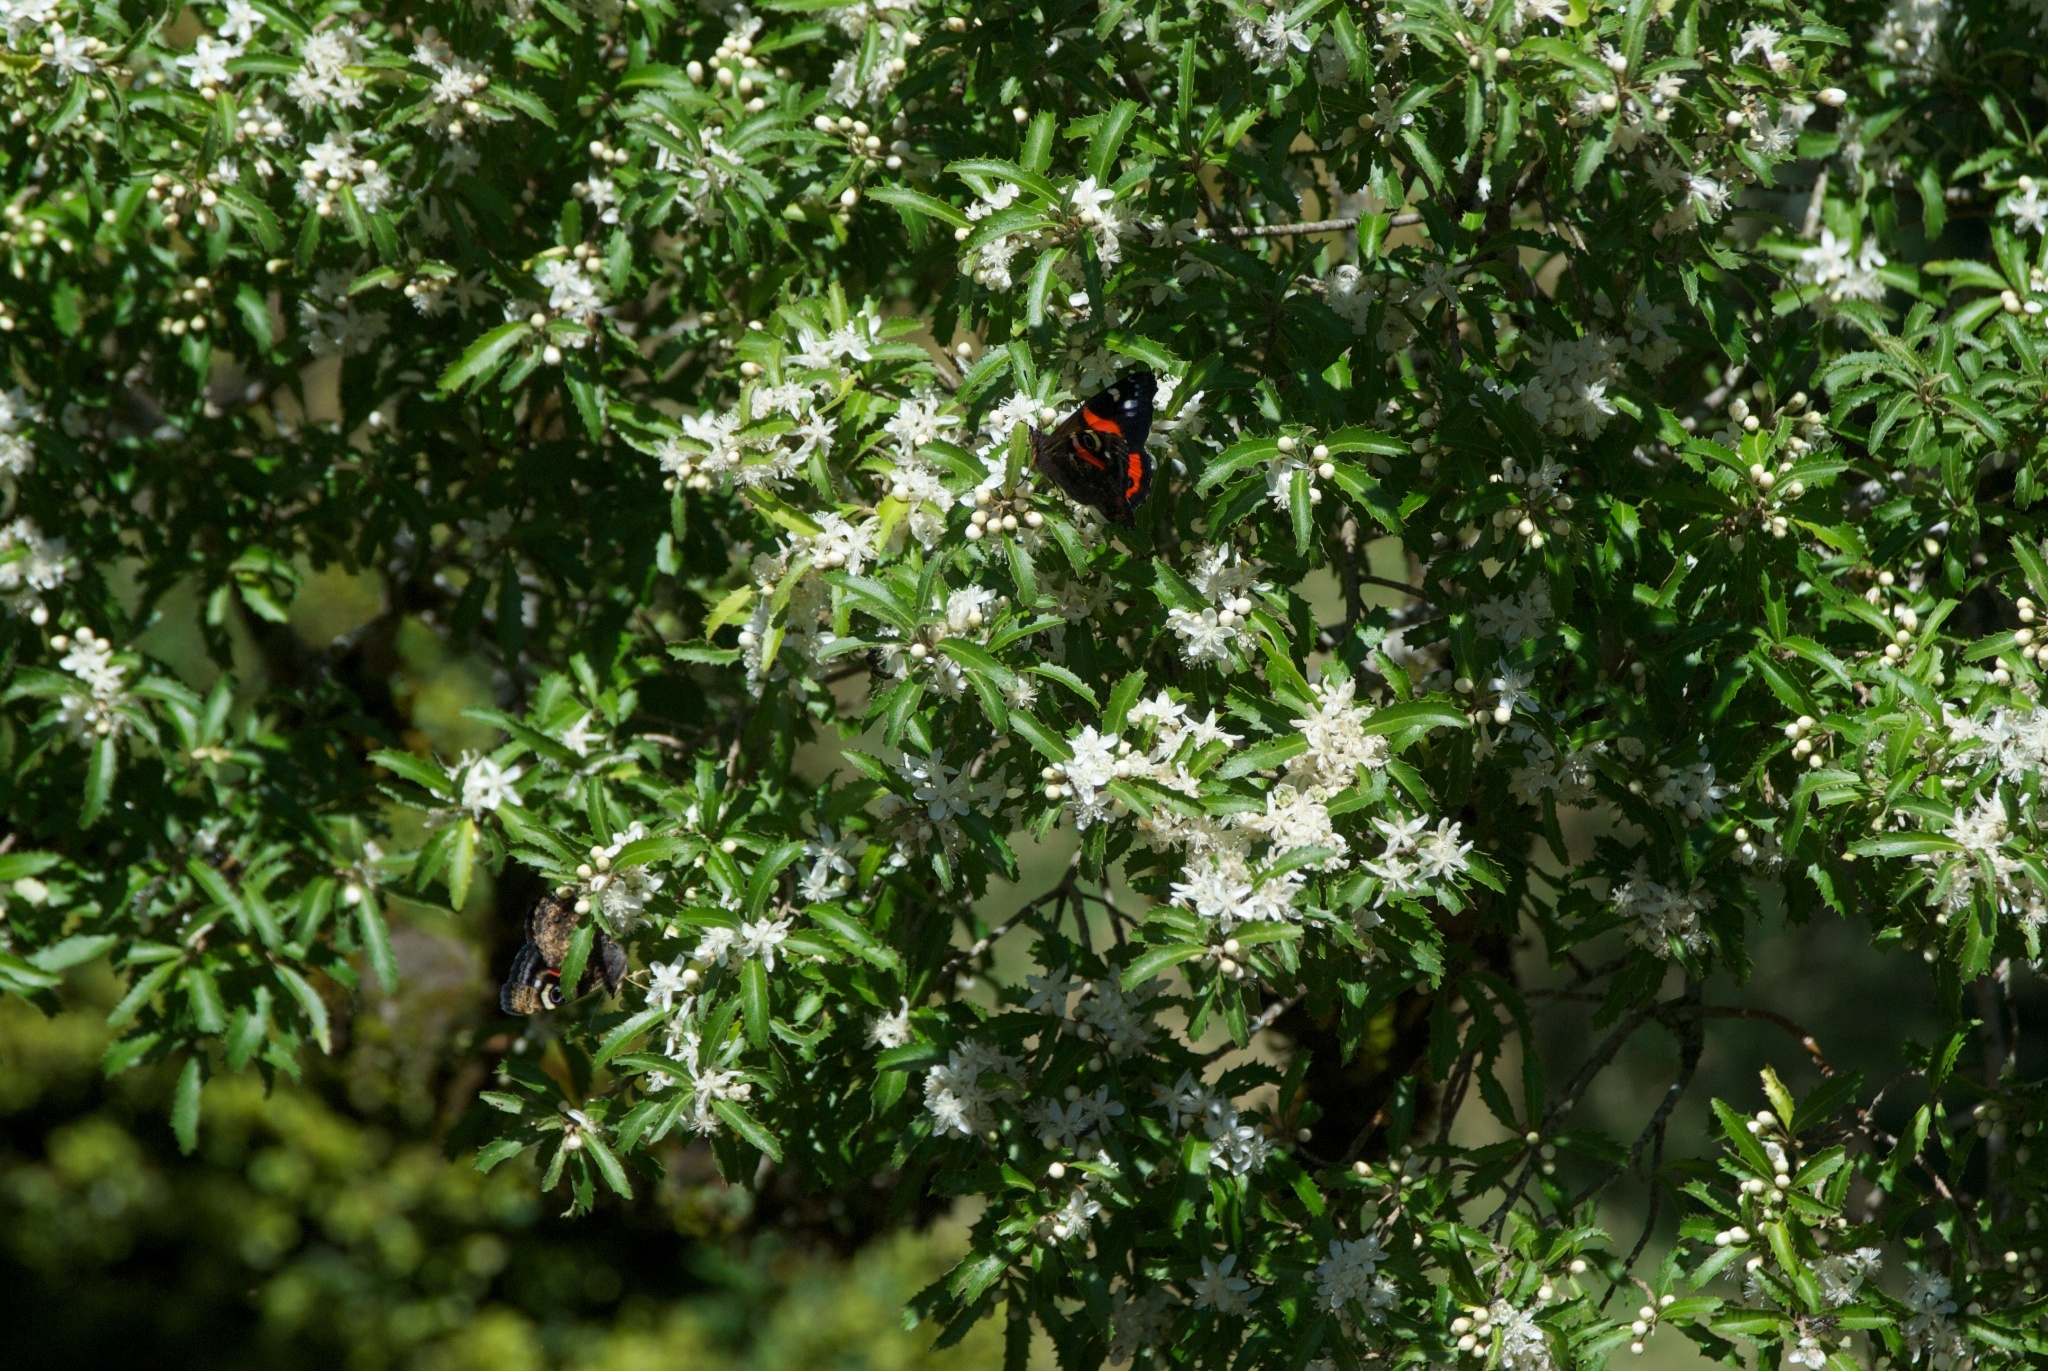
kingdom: Animalia
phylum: Arthropoda
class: Insecta
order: Lepidoptera
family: Nymphalidae
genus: Vanessa
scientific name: Vanessa gonerilla
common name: New zealand red admiral
